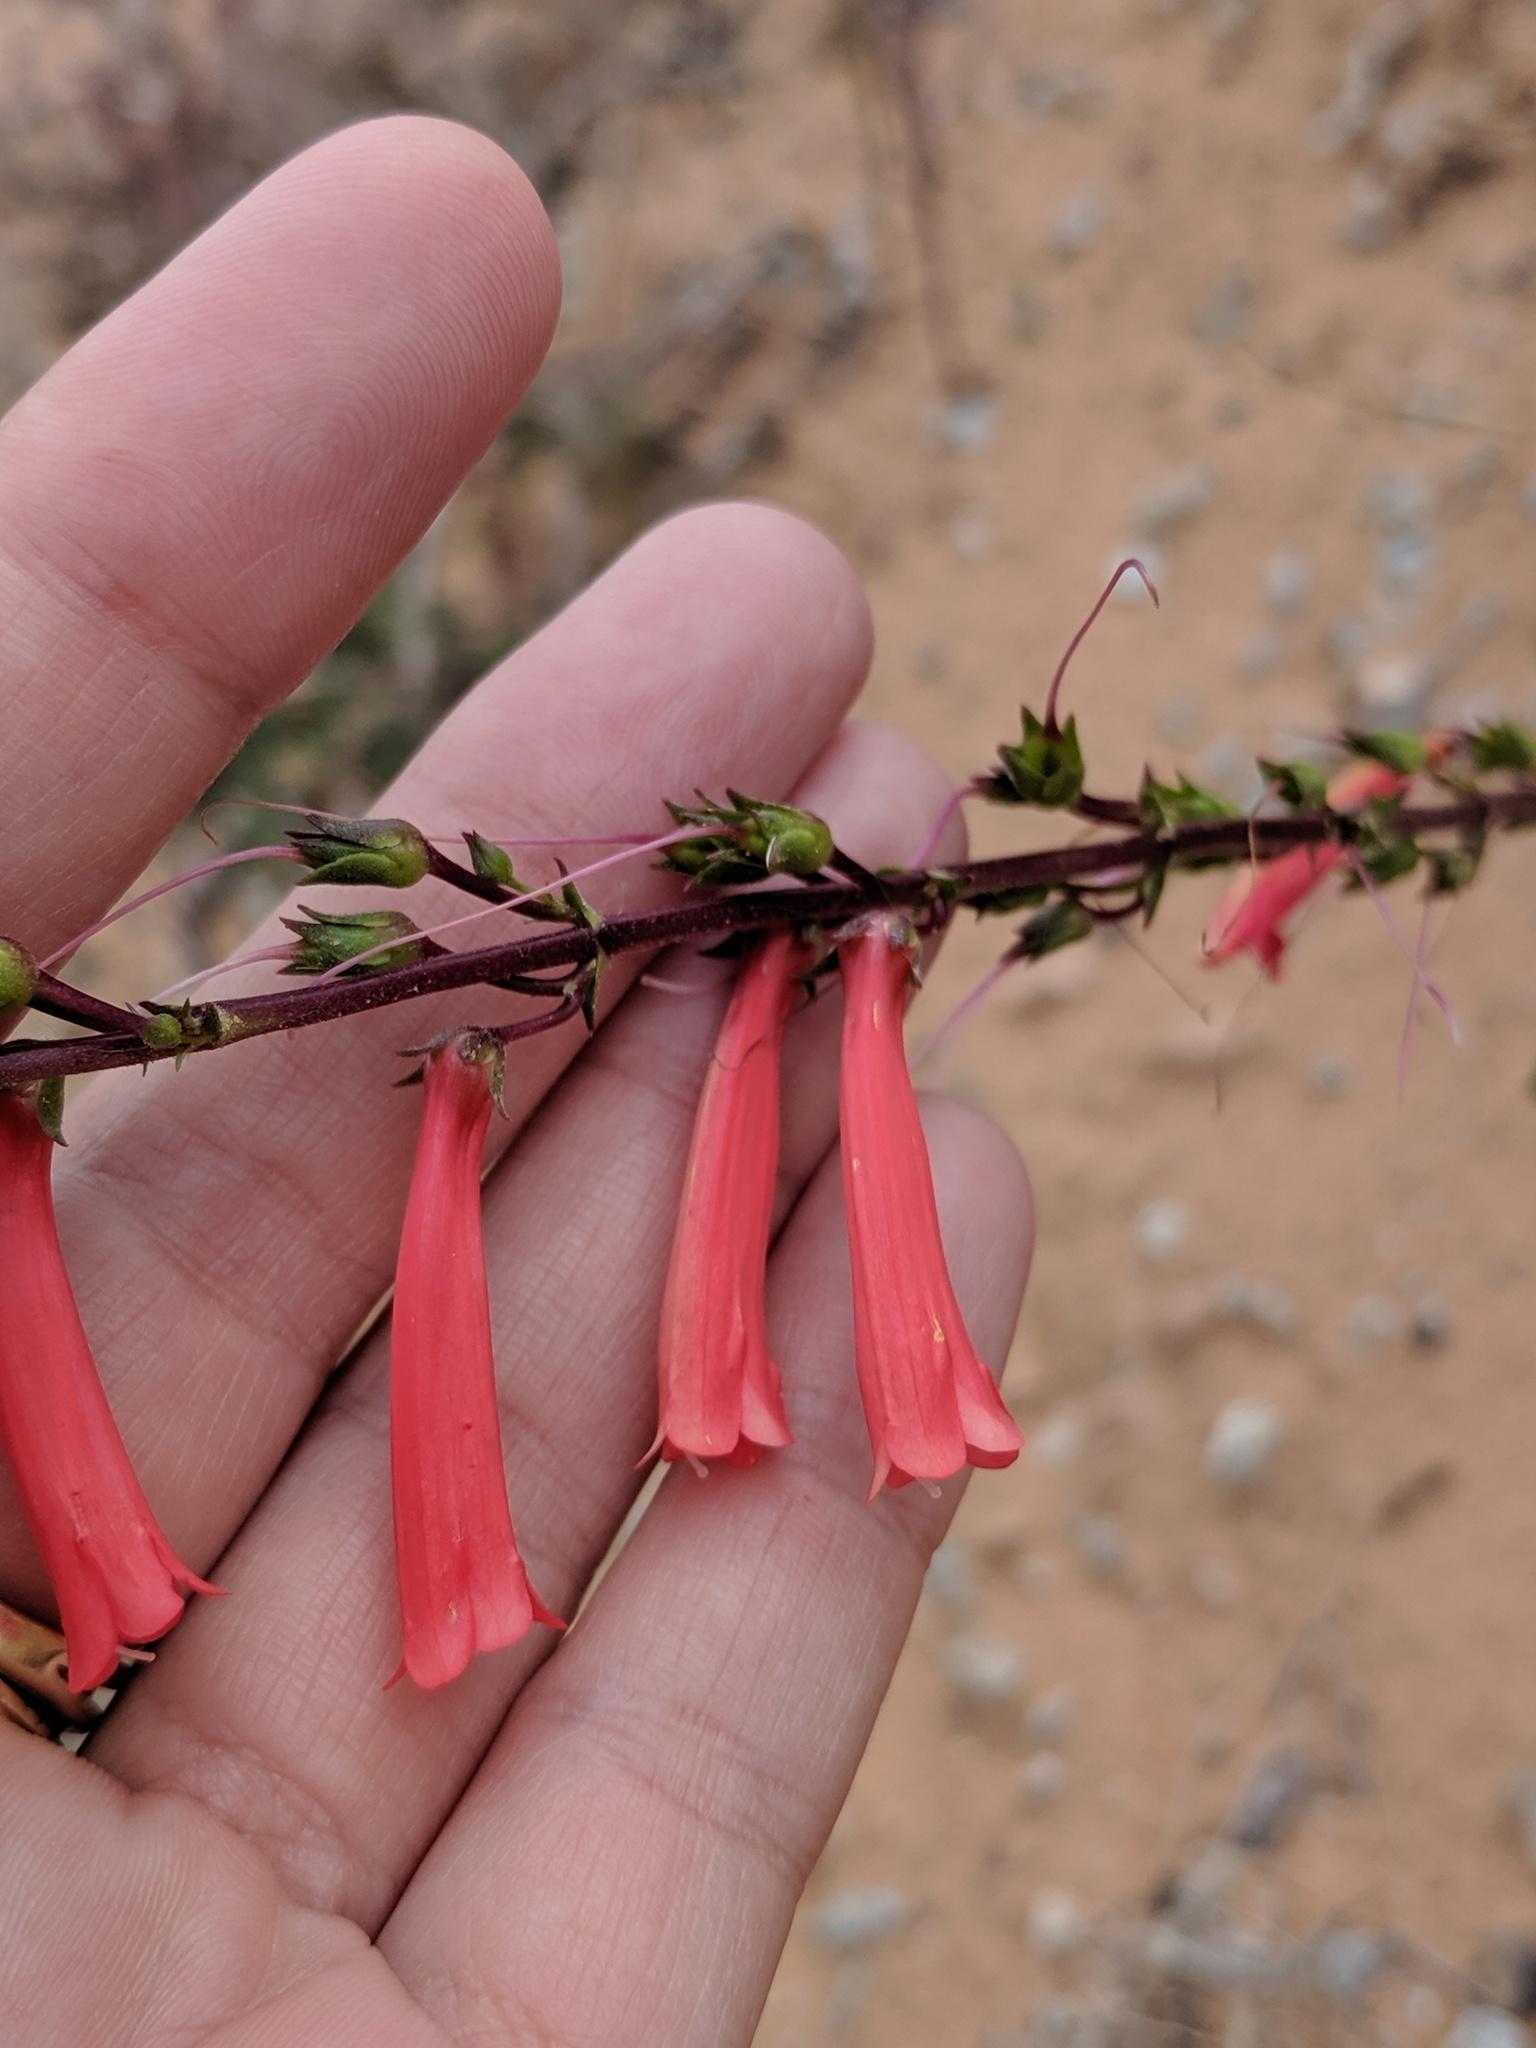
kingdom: Plantae
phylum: Tracheophyta
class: Magnoliopsida
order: Lamiales
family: Plantaginaceae
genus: Penstemon
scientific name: Penstemon eatonii
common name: Eaton's penstemon
